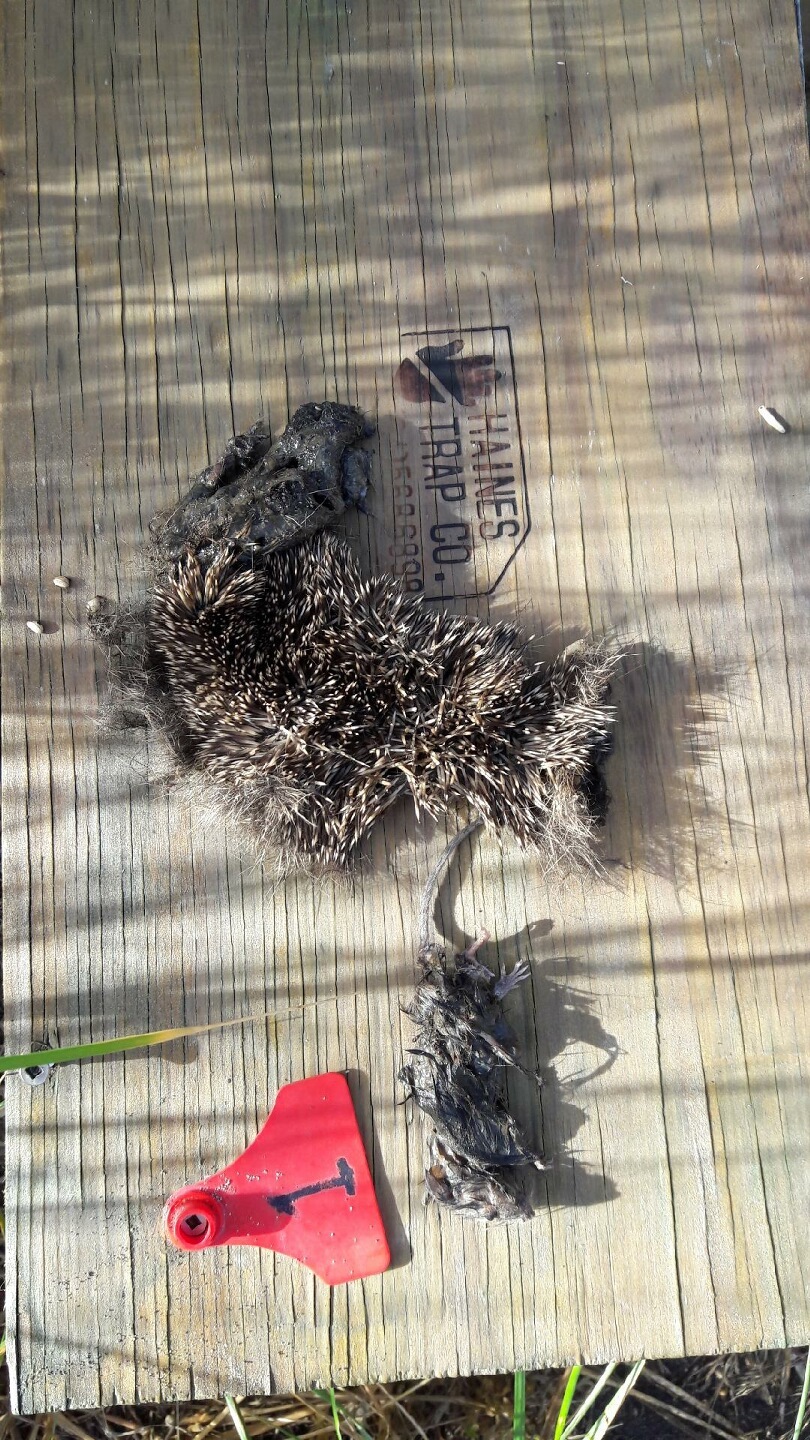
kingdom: Animalia
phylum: Chordata
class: Mammalia
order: Erinaceomorpha
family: Erinaceidae
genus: Erinaceus
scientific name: Erinaceus europaeus
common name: West european hedgehog
